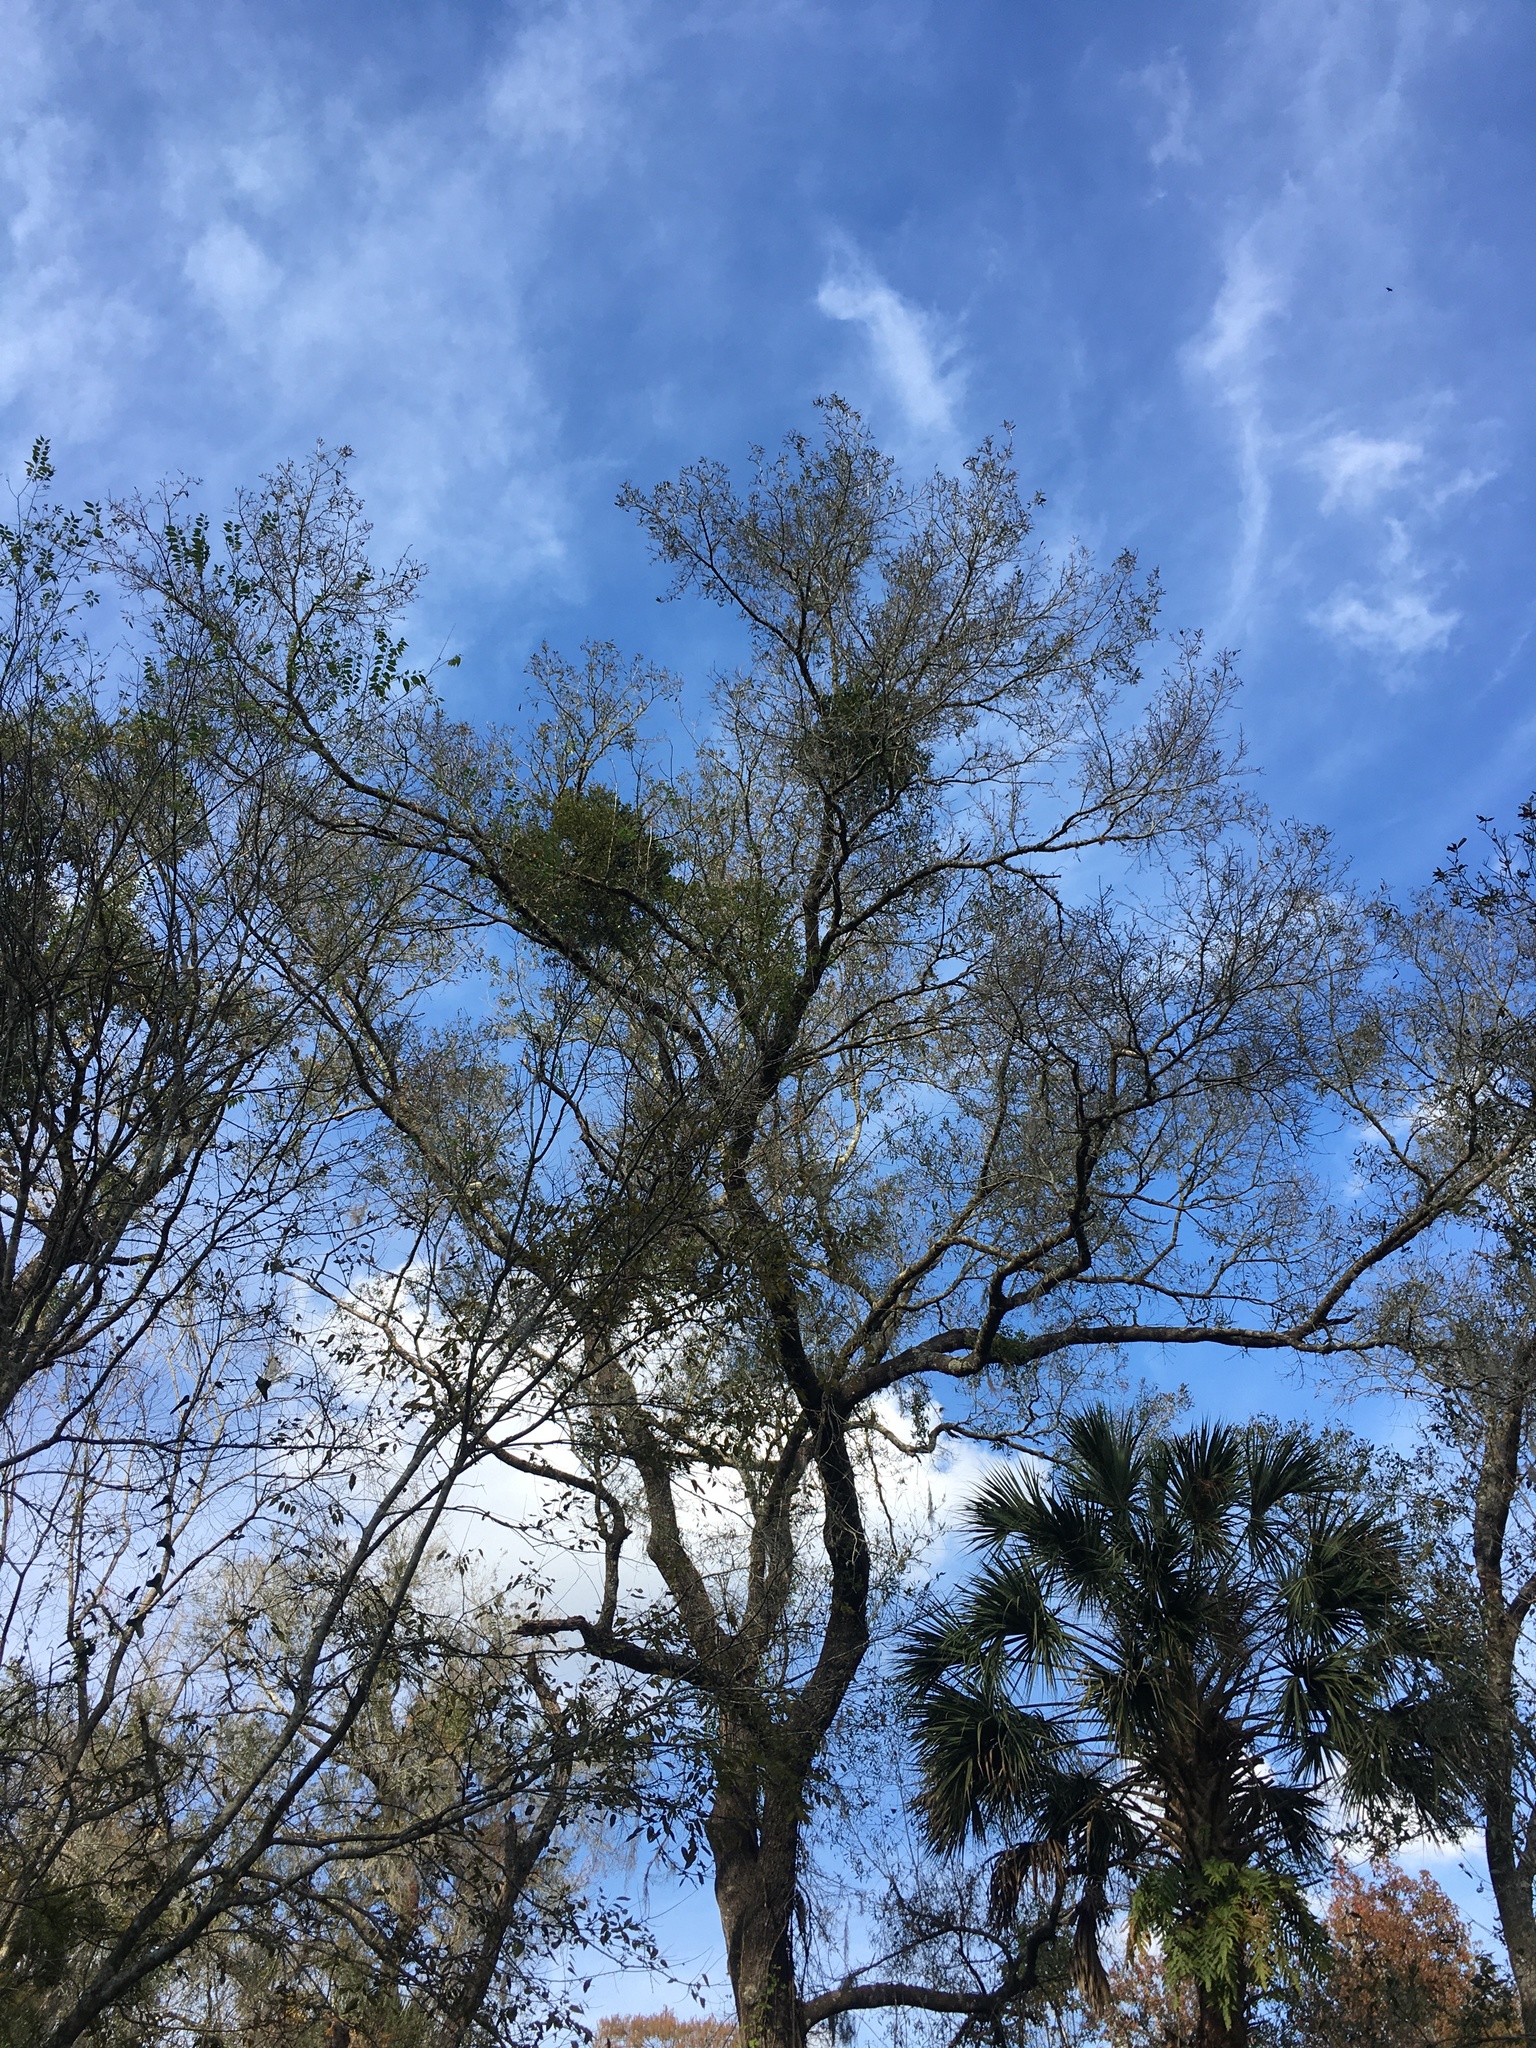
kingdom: Plantae
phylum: Tracheophyta
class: Magnoliopsida
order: Santalales
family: Viscaceae
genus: Phoradendron
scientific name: Phoradendron leucarpum
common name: Pacific mistletoe
